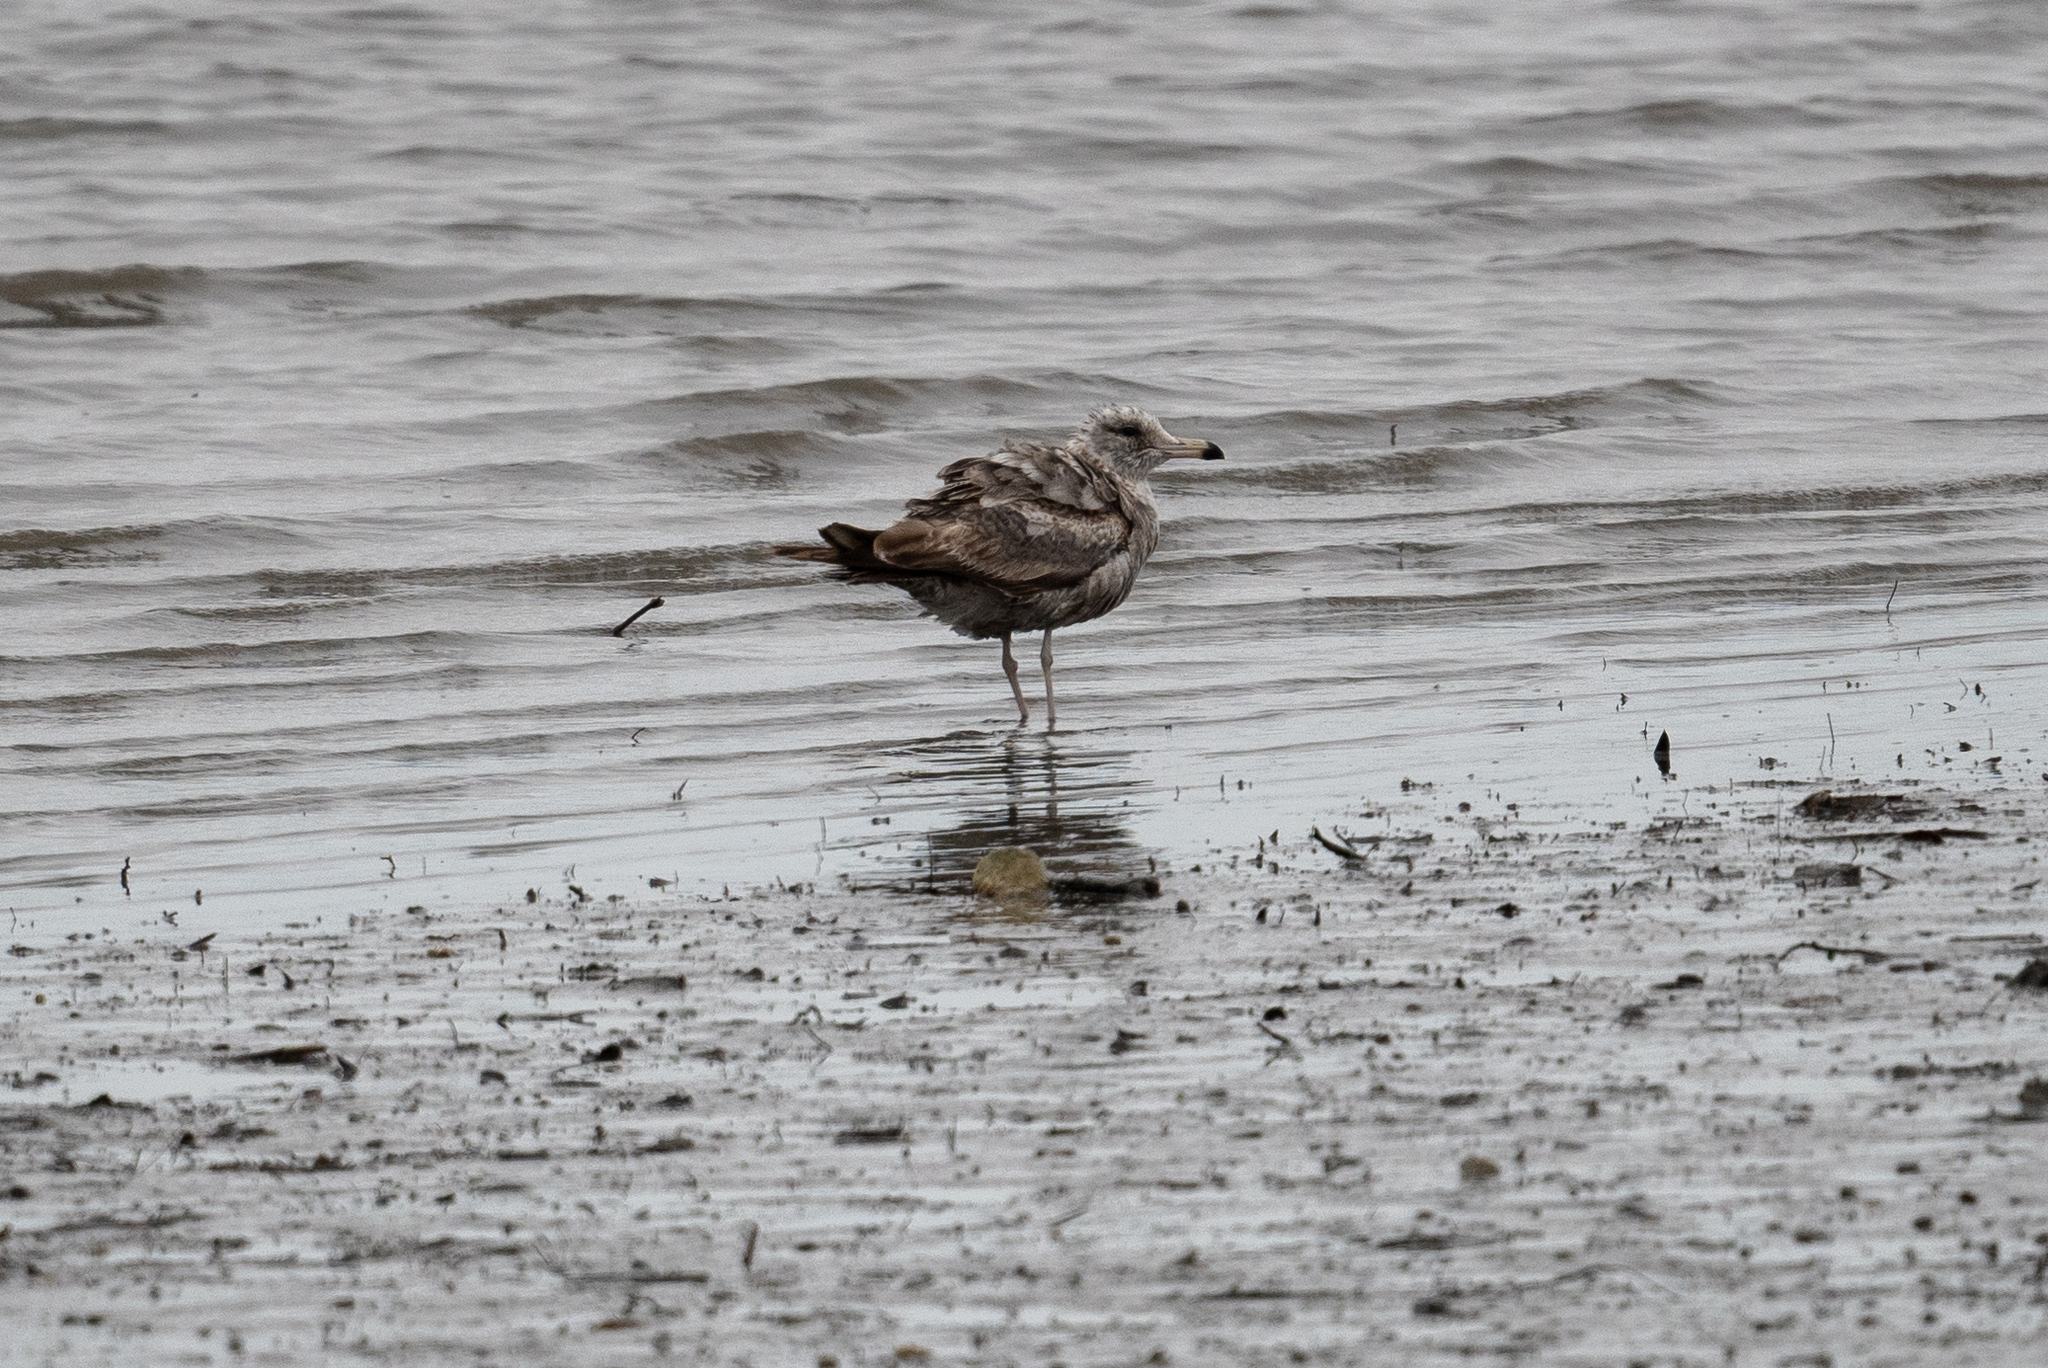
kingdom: Animalia
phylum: Chordata
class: Aves
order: Charadriiformes
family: Laridae
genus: Larus
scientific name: Larus californicus
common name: California gull
